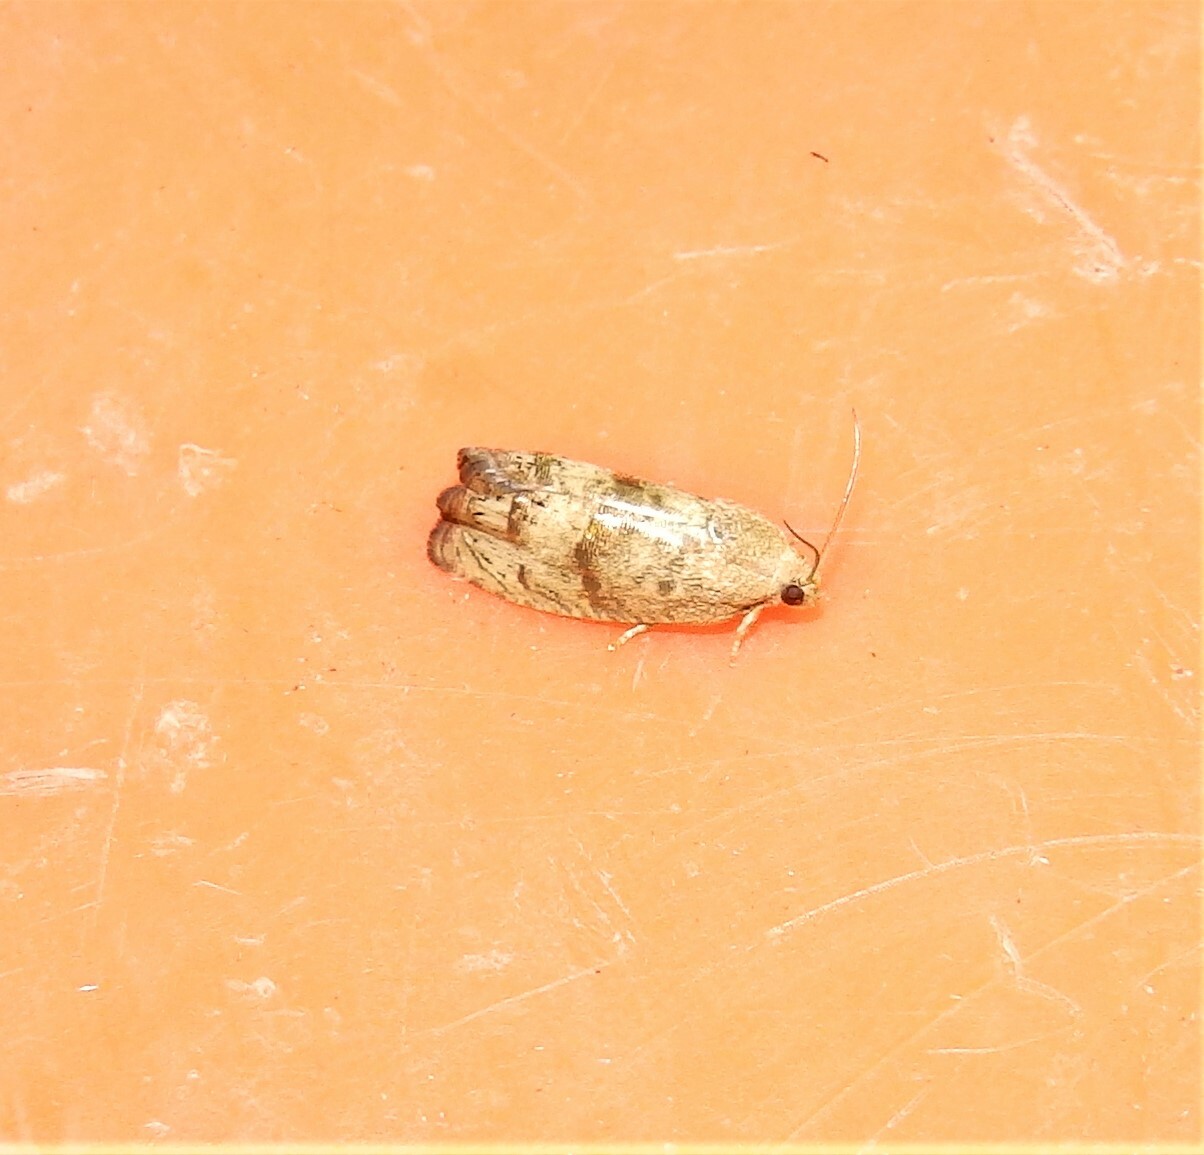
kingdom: Animalia
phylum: Arthropoda
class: Insecta
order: Lepidoptera
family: Tortricidae
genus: Cydia
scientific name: Cydia latiferreana
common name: Filbertworm moth
